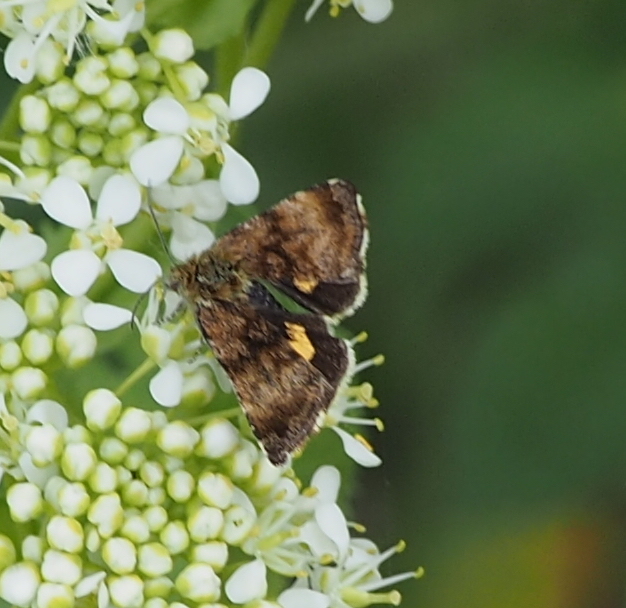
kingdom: Animalia
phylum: Arthropoda
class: Insecta
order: Lepidoptera
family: Noctuidae
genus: Panemeria
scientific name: Panemeria tenebrata
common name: Small yellow underwing
